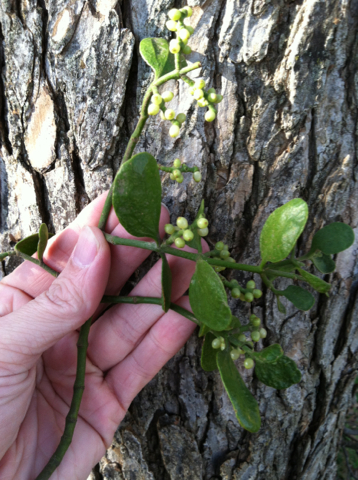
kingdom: Plantae
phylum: Tracheophyta
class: Magnoliopsida
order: Santalales
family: Viscaceae
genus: Phoradendron
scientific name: Phoradendron leucarpum
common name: Pacific mistletoe
